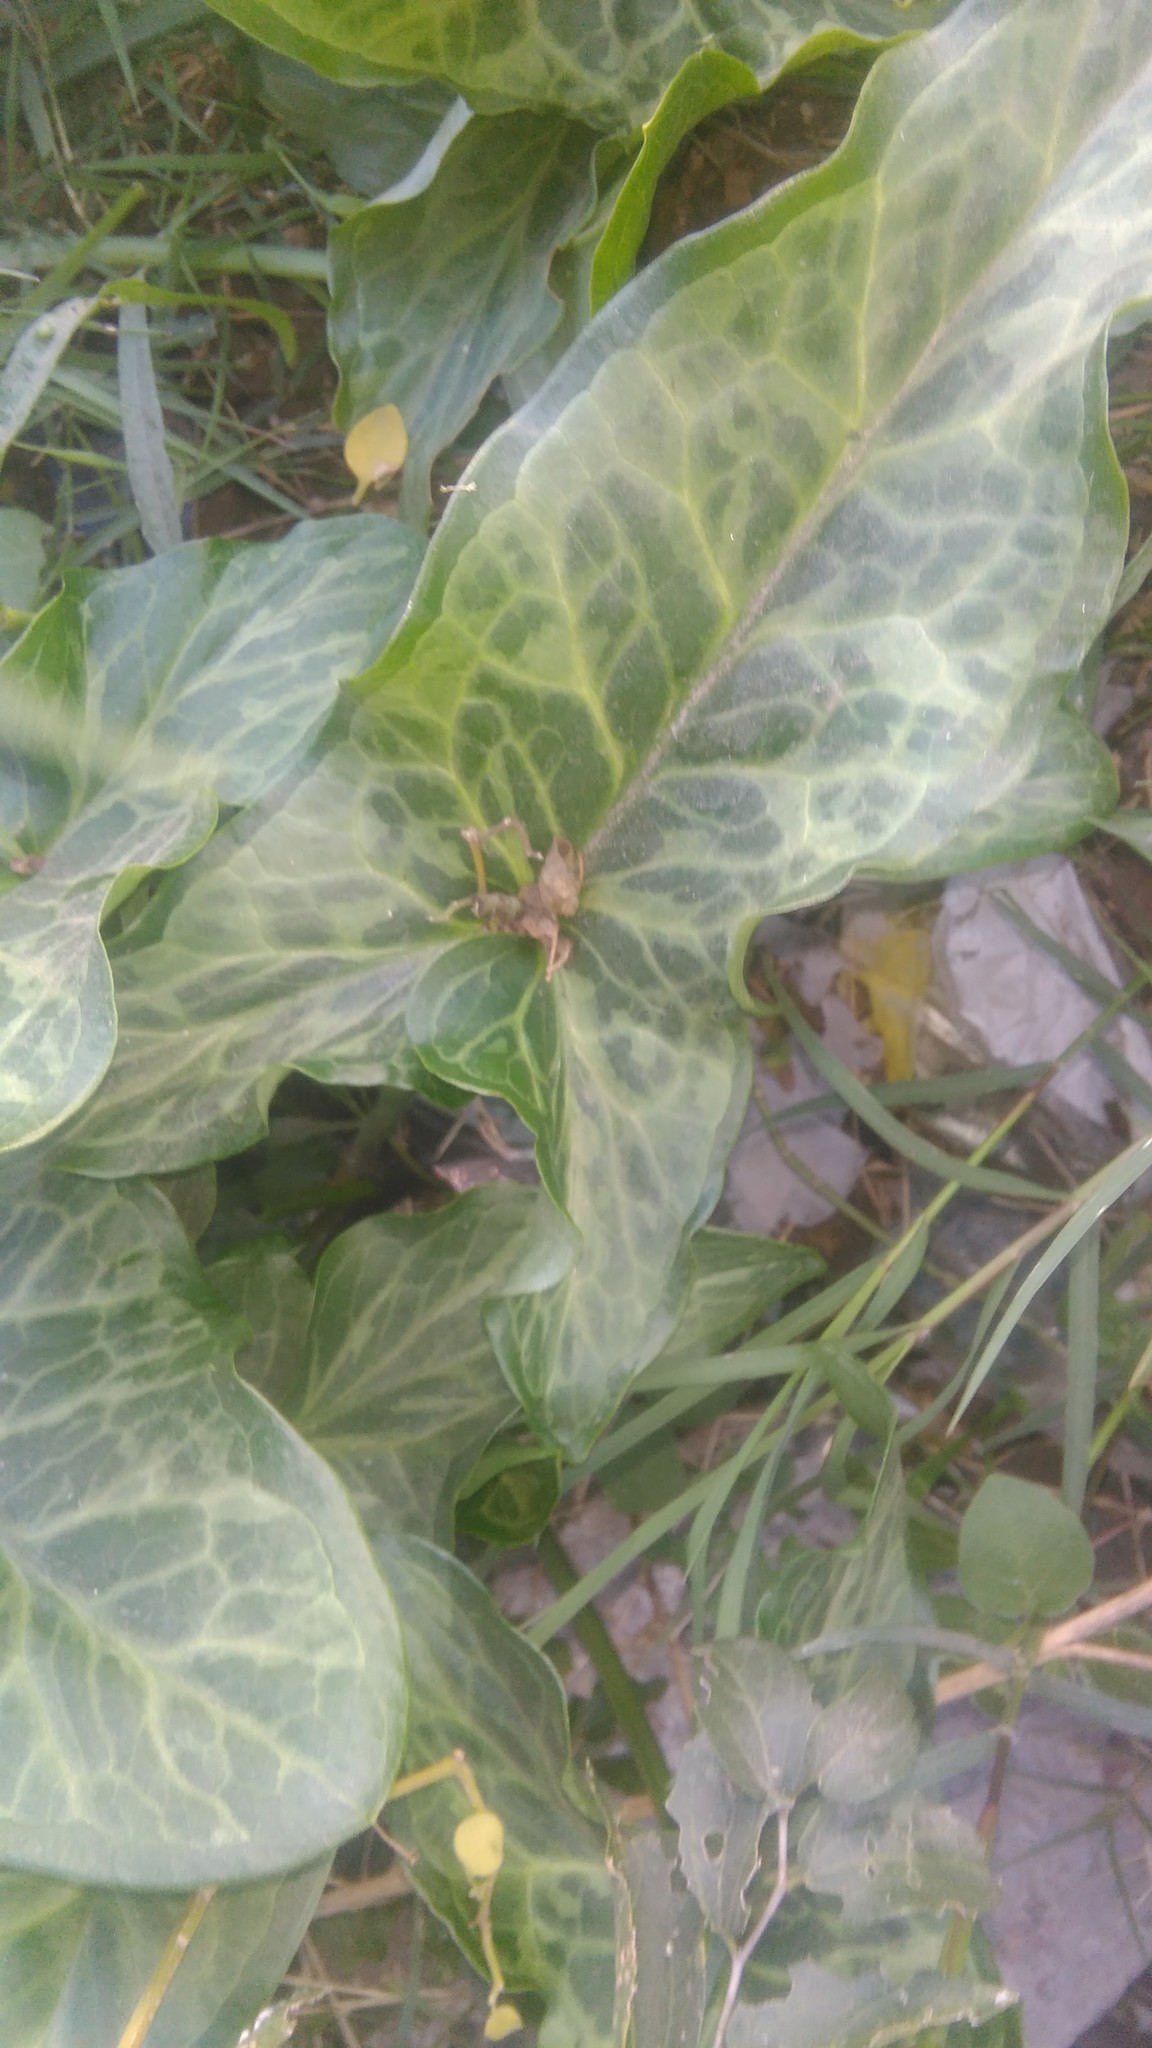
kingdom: Plantae
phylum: Tracheophyta
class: Liliopsida
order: Alismatales
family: Araceae
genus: Arum
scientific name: Arum italicum
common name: Italian lords-and-ladies
